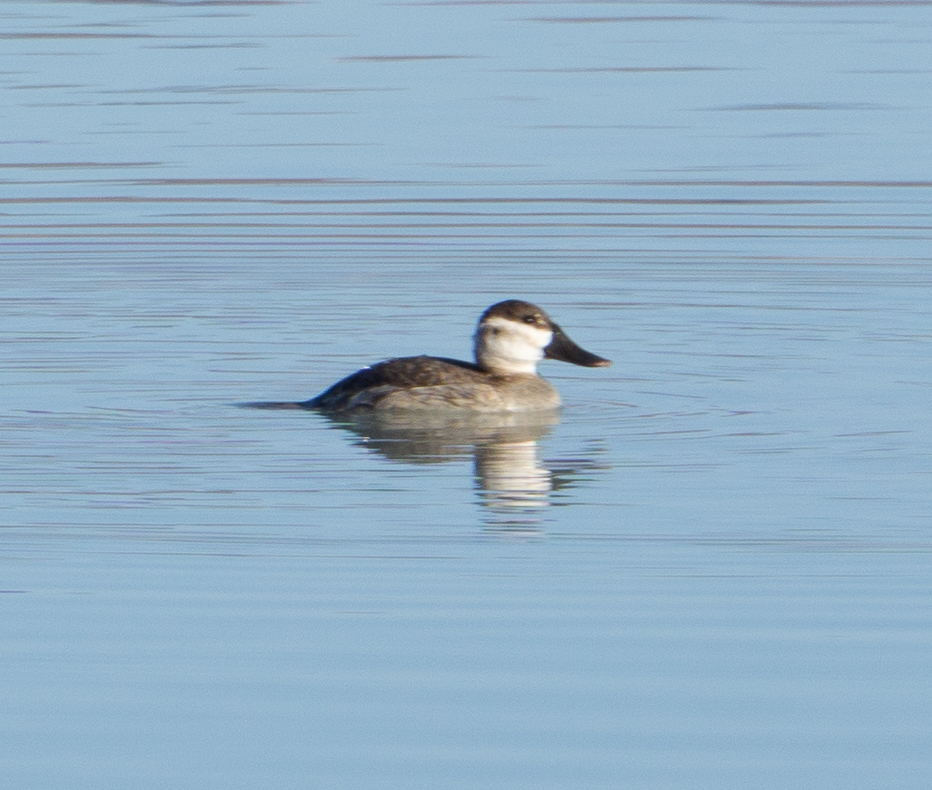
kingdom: Animalia
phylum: Chordata
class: Aves
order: Anseriformes
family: Anatidae
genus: Oxyura
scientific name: Oxyura jamaicensis
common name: Ruddy duck
